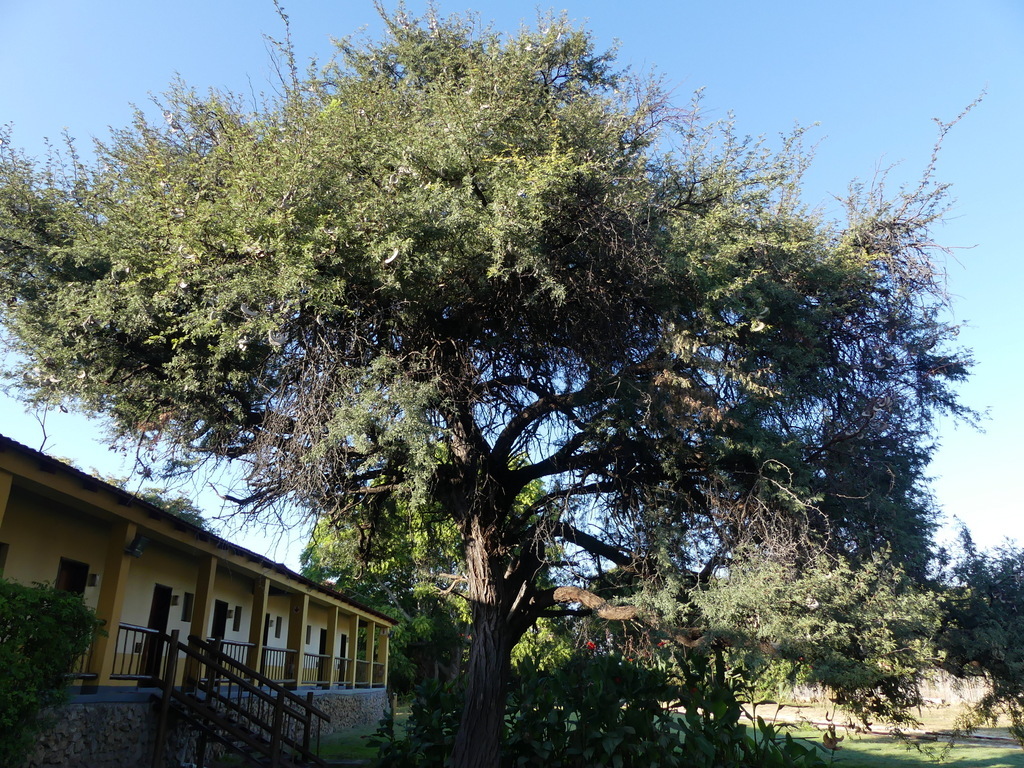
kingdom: Plantae
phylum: Tracheophyta
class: Magnoliopsida
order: Fabales
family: Fabaceae
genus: Vachellia
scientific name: Vachellia erioloba
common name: Camel thorn
